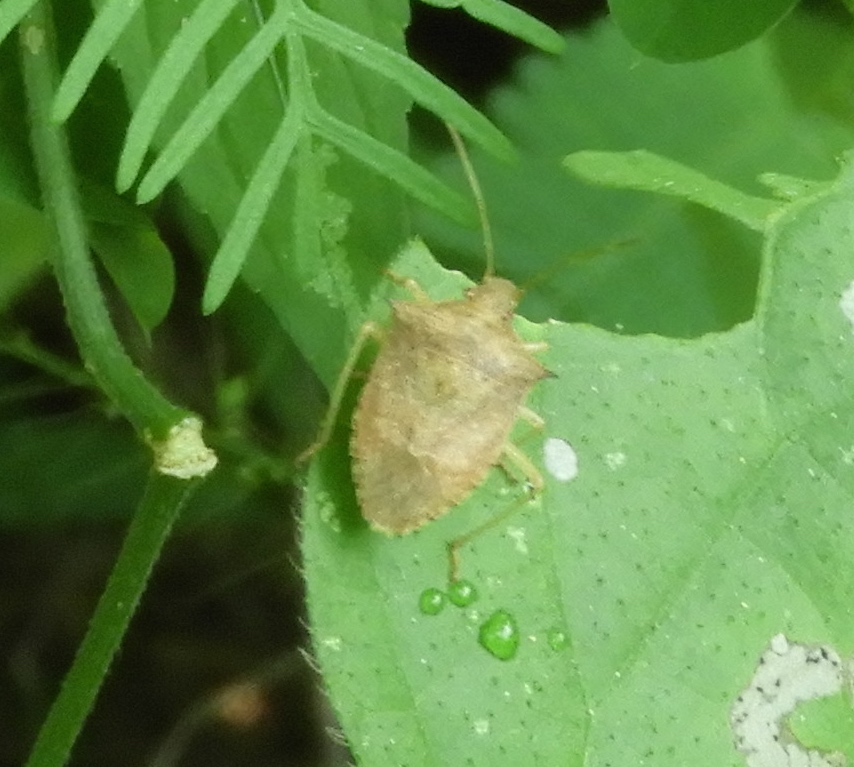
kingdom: Animalia
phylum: Arthropoda
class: Insecta
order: Hemiptera
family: Pentatomidae
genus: Euschistus
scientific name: Euschistus
